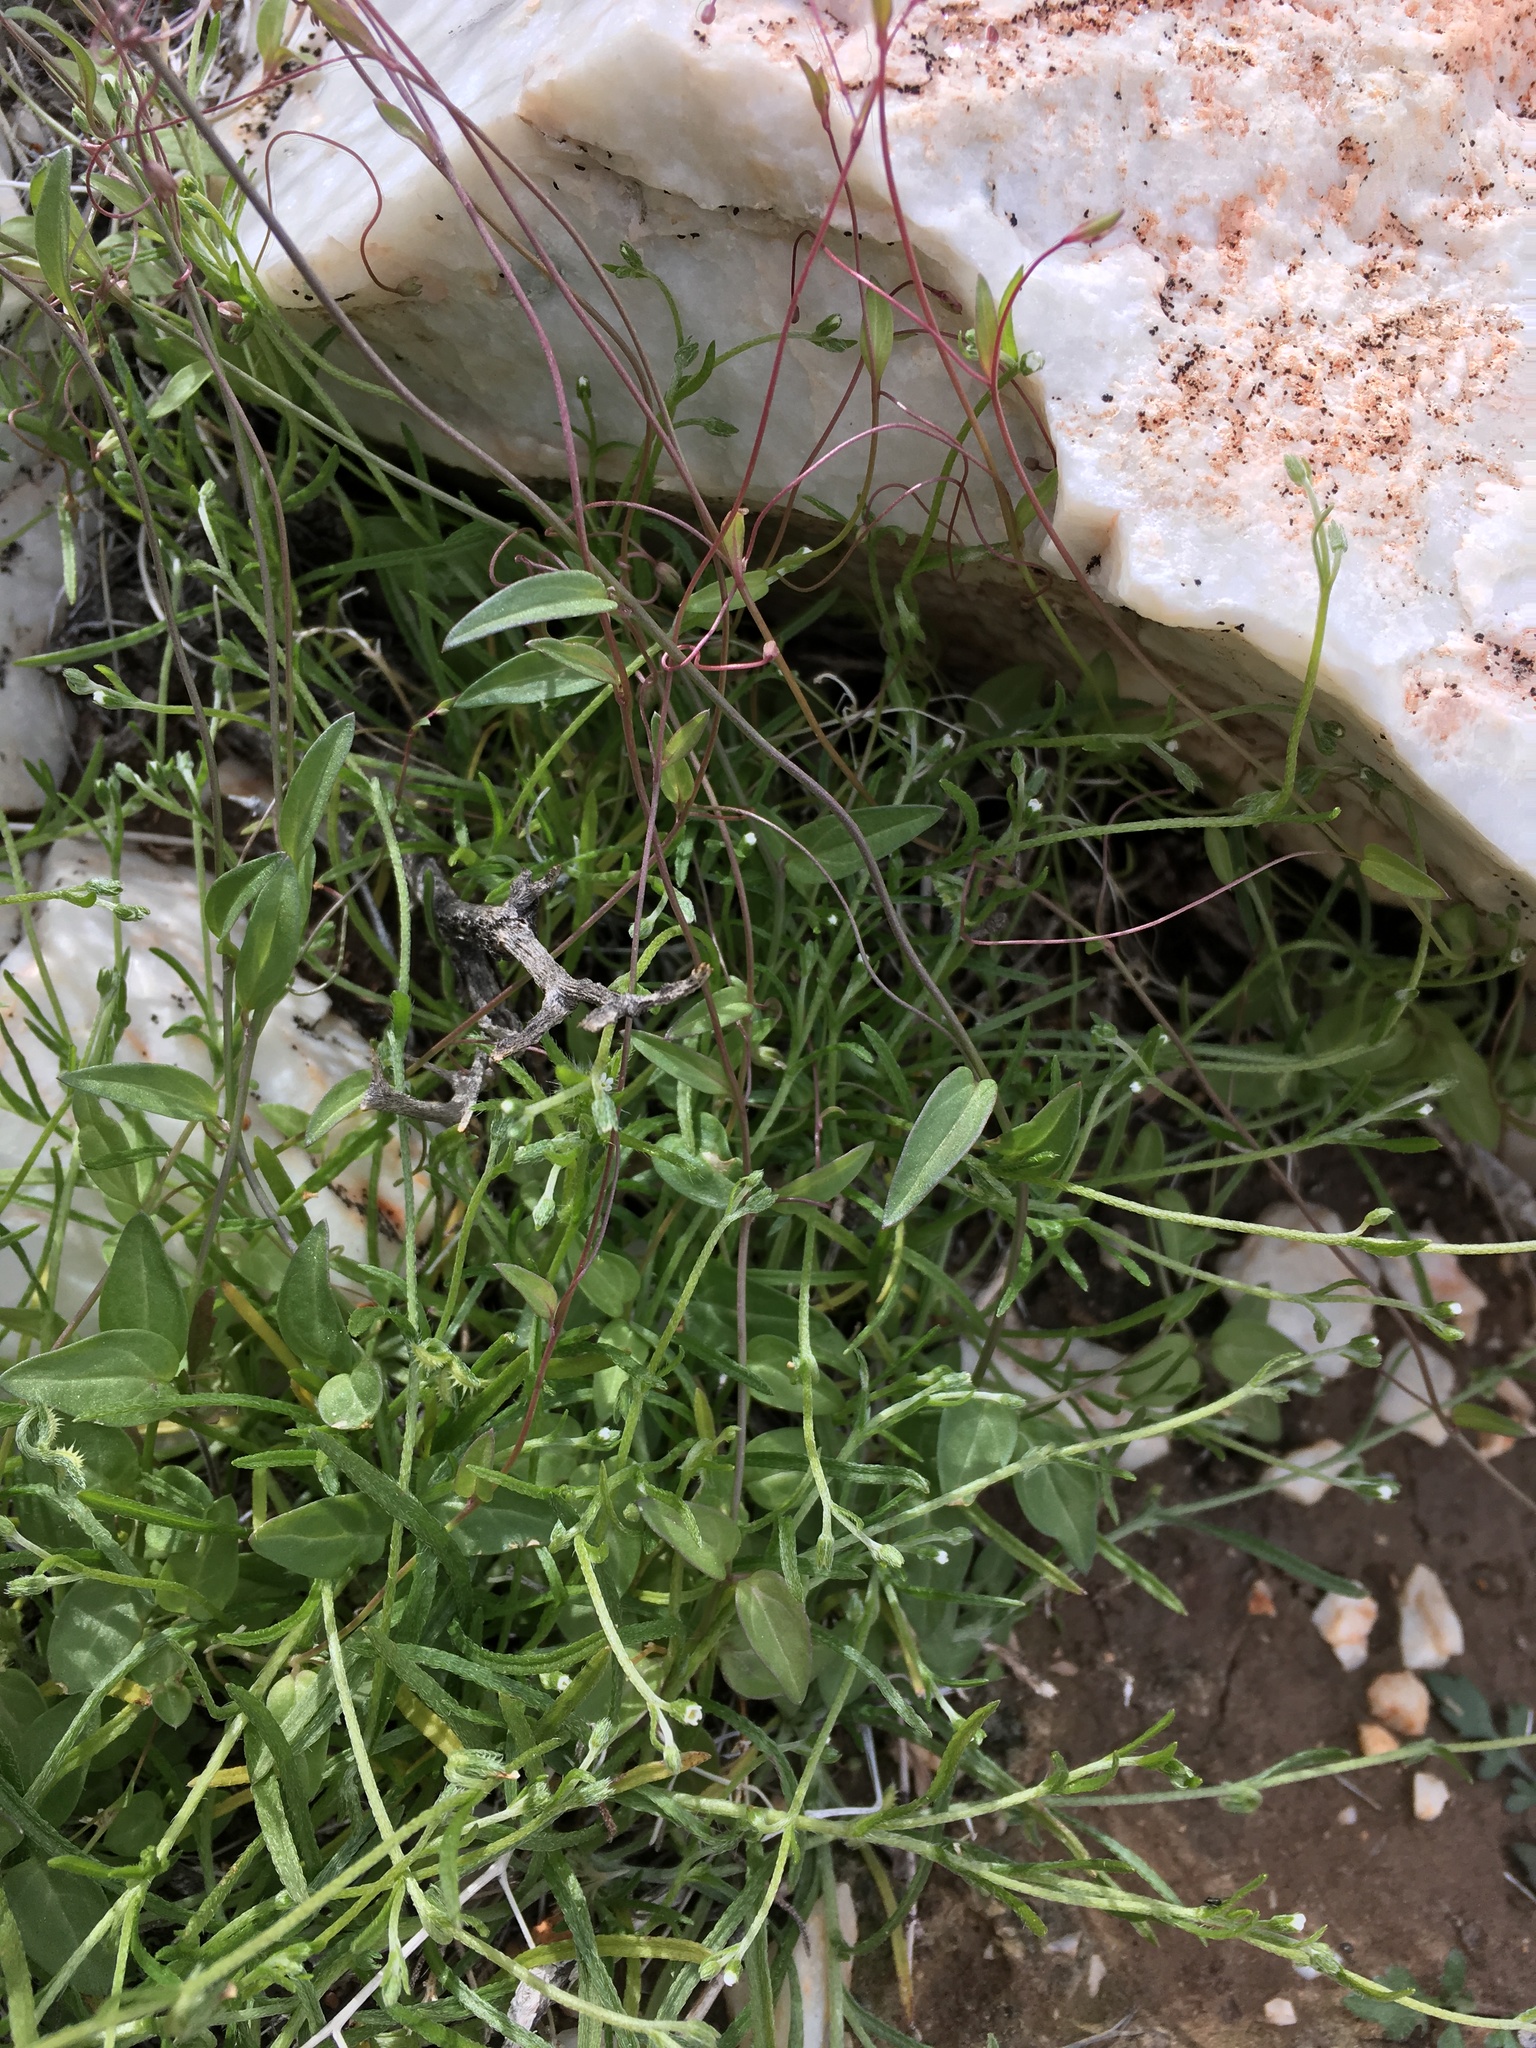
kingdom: Plantae
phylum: Tracheophyta
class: Magnoliopsida
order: Lamiales
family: Plantaginaceae
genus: Neogaerrhinum
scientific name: Neogaerrhinum filipes
